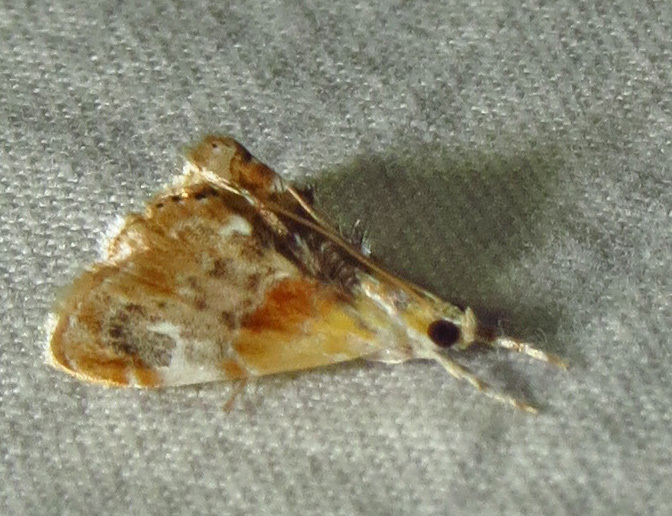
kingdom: Animalia
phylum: Arthropoda
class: Insecta
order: Lepidoptera
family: Crambidae
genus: Dicymolomia
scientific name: Dicymolomia julianalis
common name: Julia's dicymolomia moth
